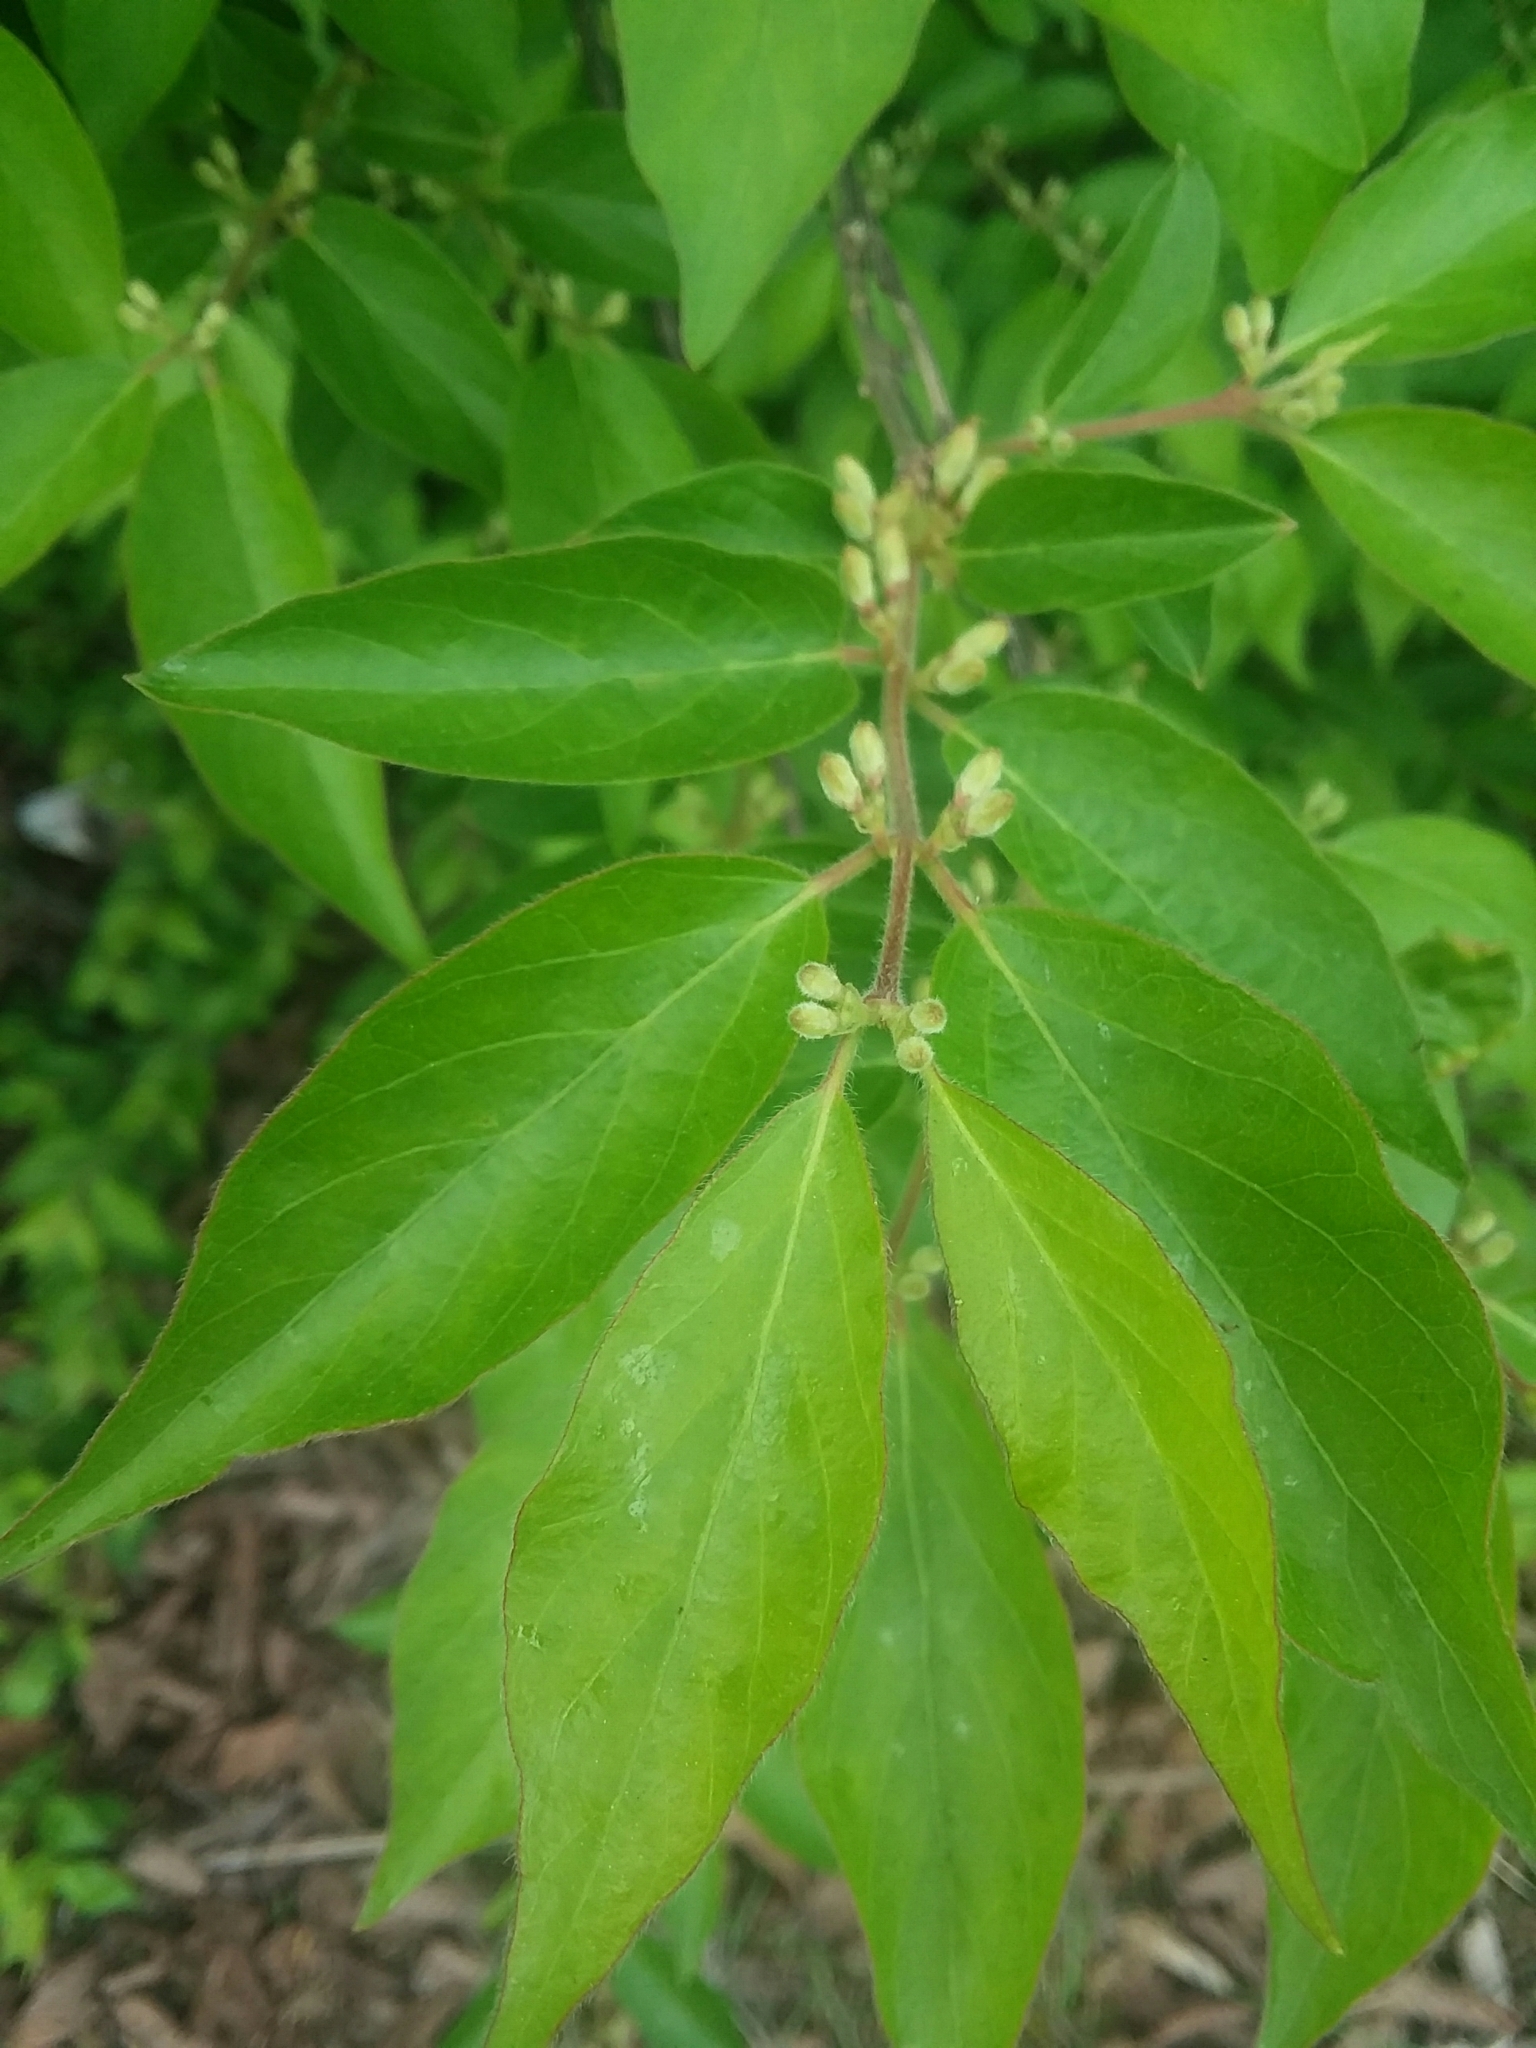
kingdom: Plantae
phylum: Tracheophyta
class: Magnoliopsida
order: Dipsacales
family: Caprifoliaceae
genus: Lonicera
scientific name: Lonicera maackii
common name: Amur honeysuckle
